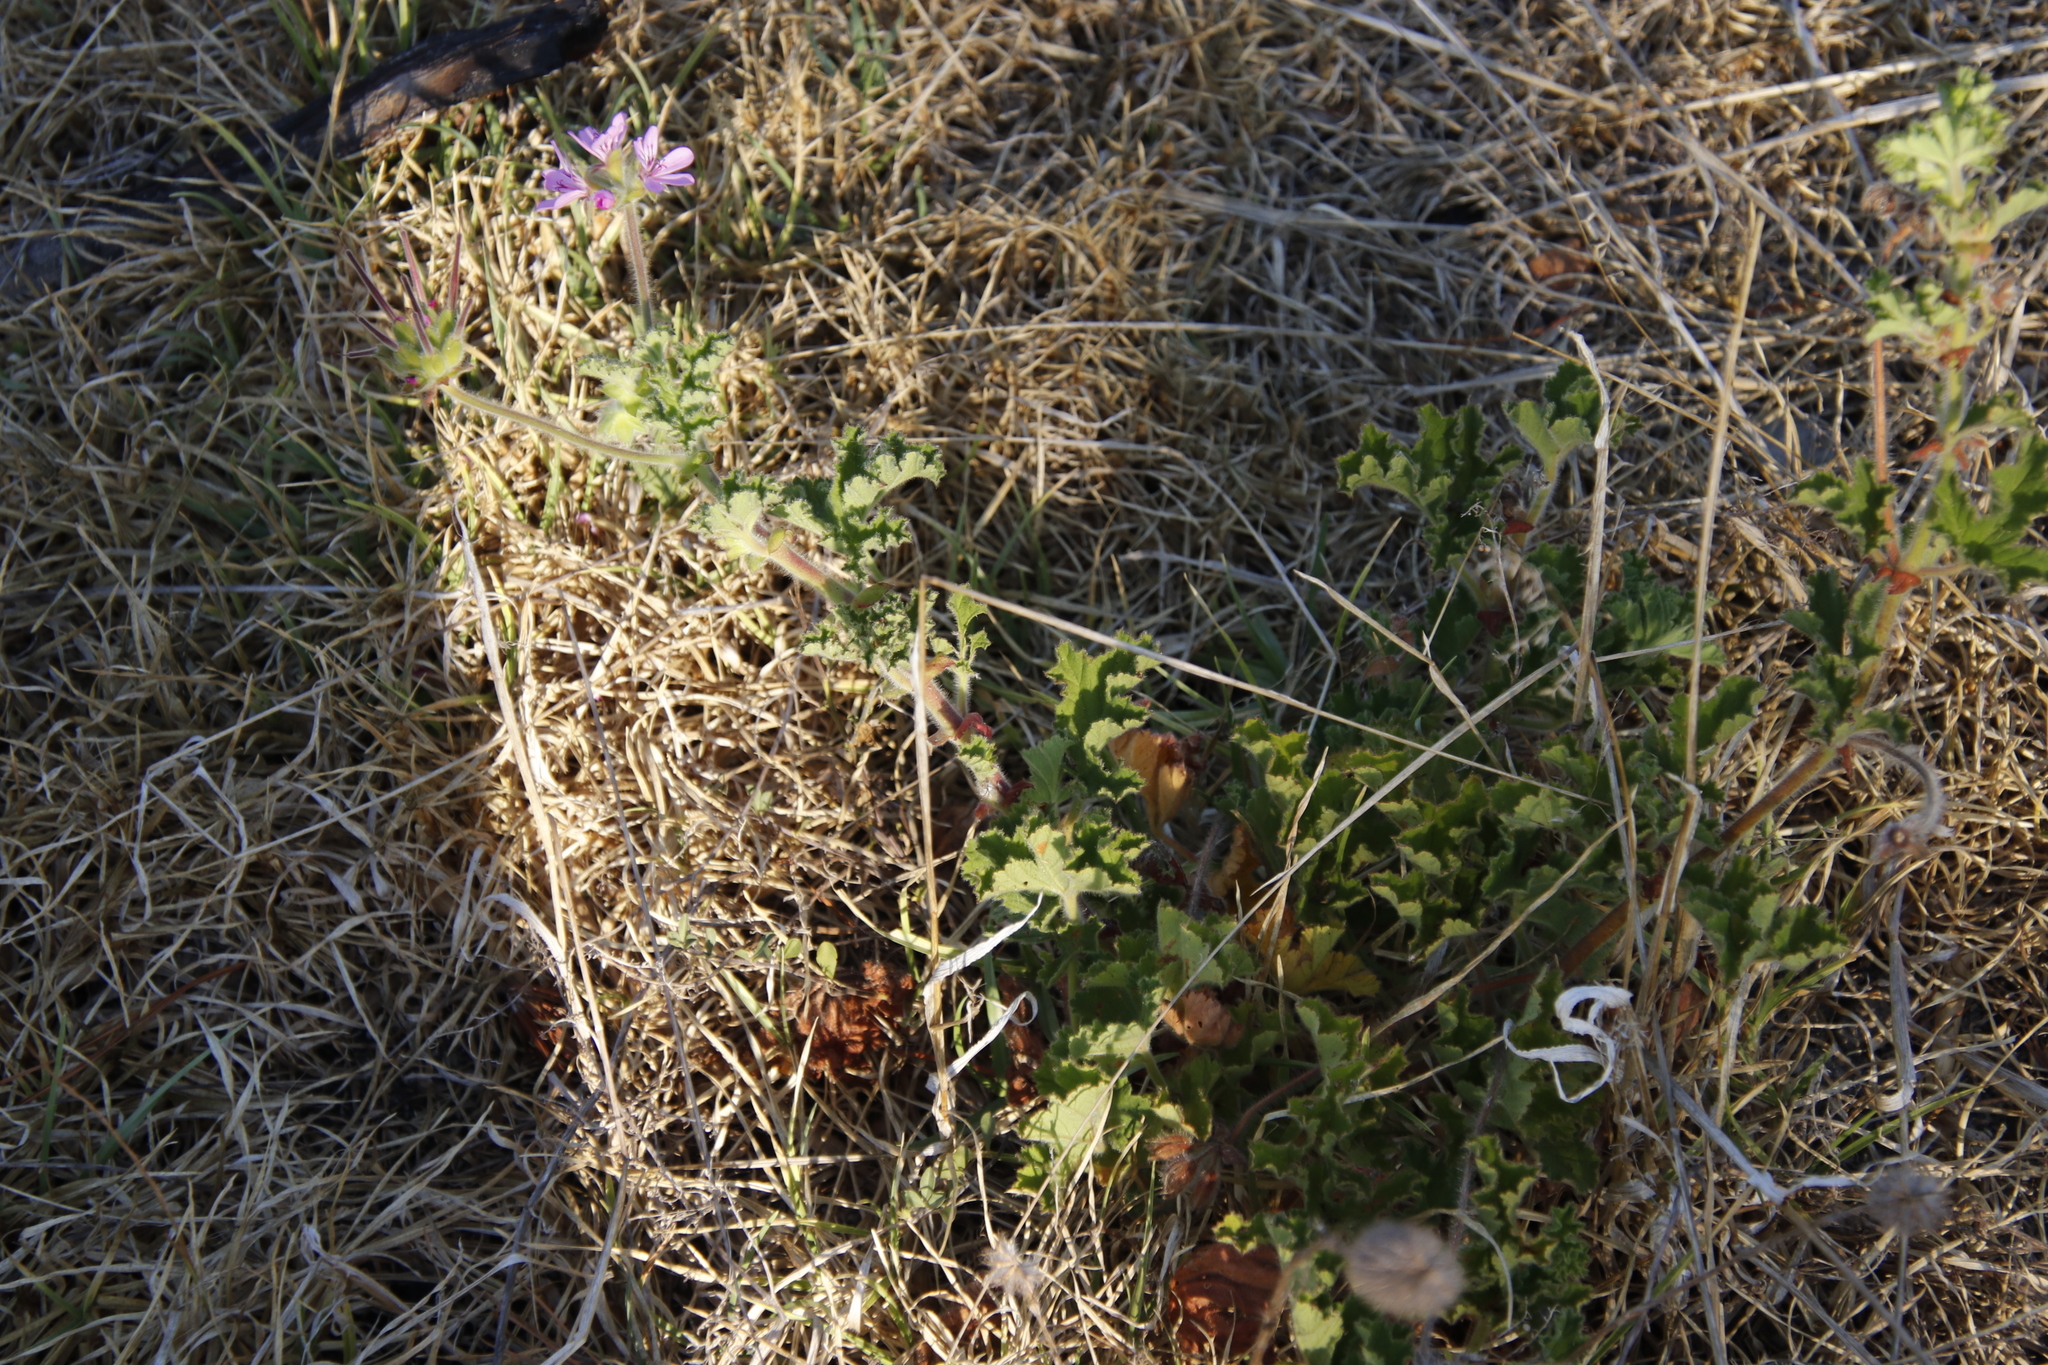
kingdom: Plantae
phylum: Tracheophyta
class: Magnoliopsida
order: Geraniales
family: Geraniaceae
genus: Pelargonium
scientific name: Pelargonium capitatum
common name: Rose scented geranium
